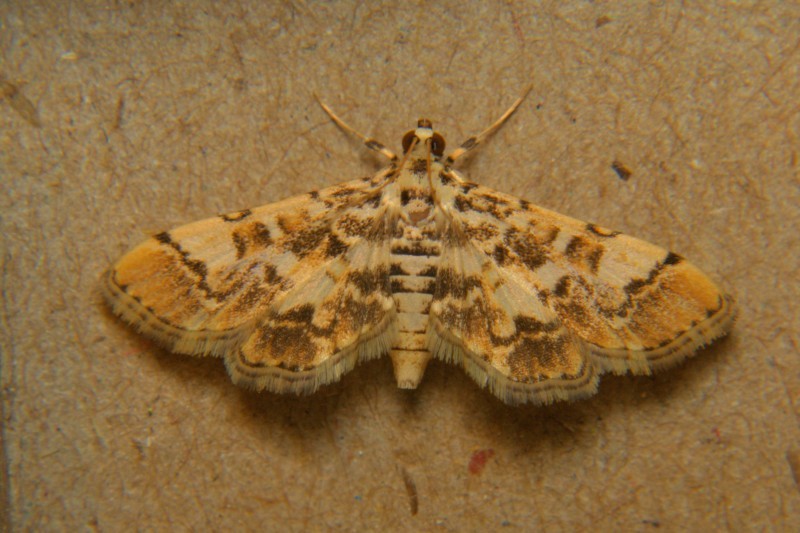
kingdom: Animalia
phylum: Arthropoda
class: Insecta
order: Lepidoptera
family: Crambidae
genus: Lamprosema
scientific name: Lamprosema commixta
